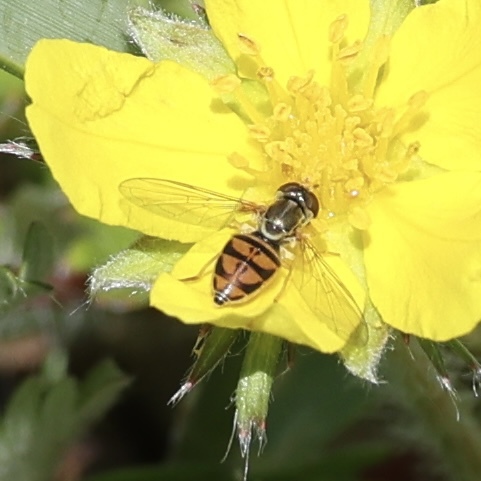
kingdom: Animalia
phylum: Arthropoda
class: Insecta
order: Diptera
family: Syrphidae
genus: Toxomerus
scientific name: Toxomerus marginatus
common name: Syrphid fly
